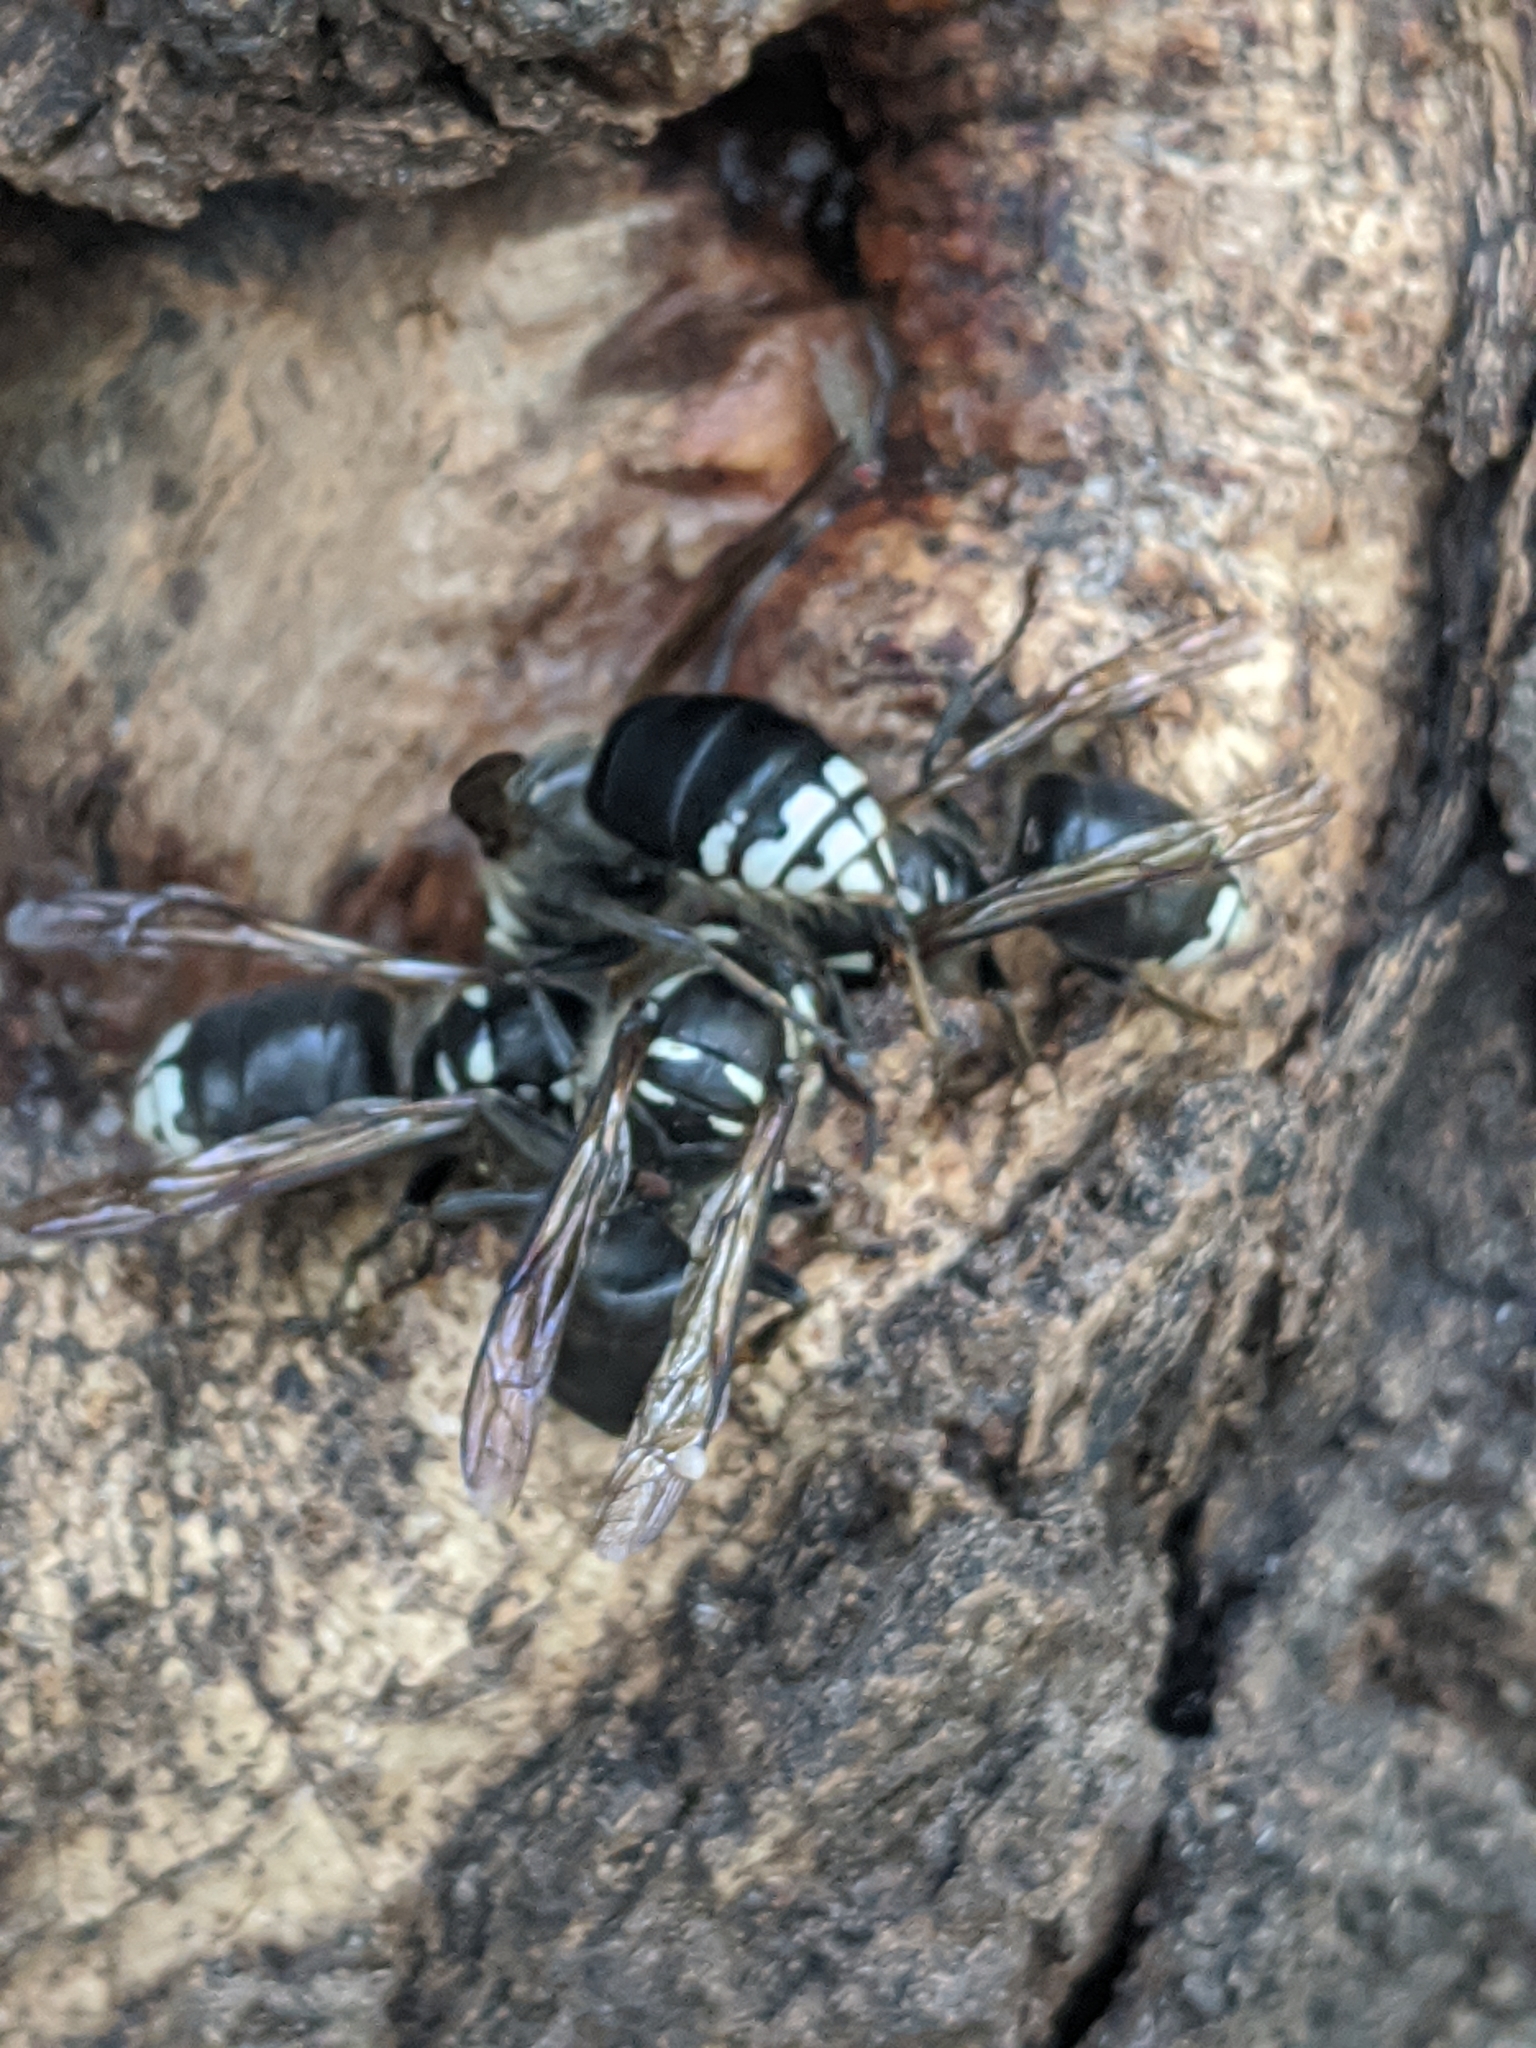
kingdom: Animalia
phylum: Arthropoda
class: Insecta
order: Hymenoptera
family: Vespidae
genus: Dolichovespula
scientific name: Dolichovespula maculata
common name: Bald-faced hornet
